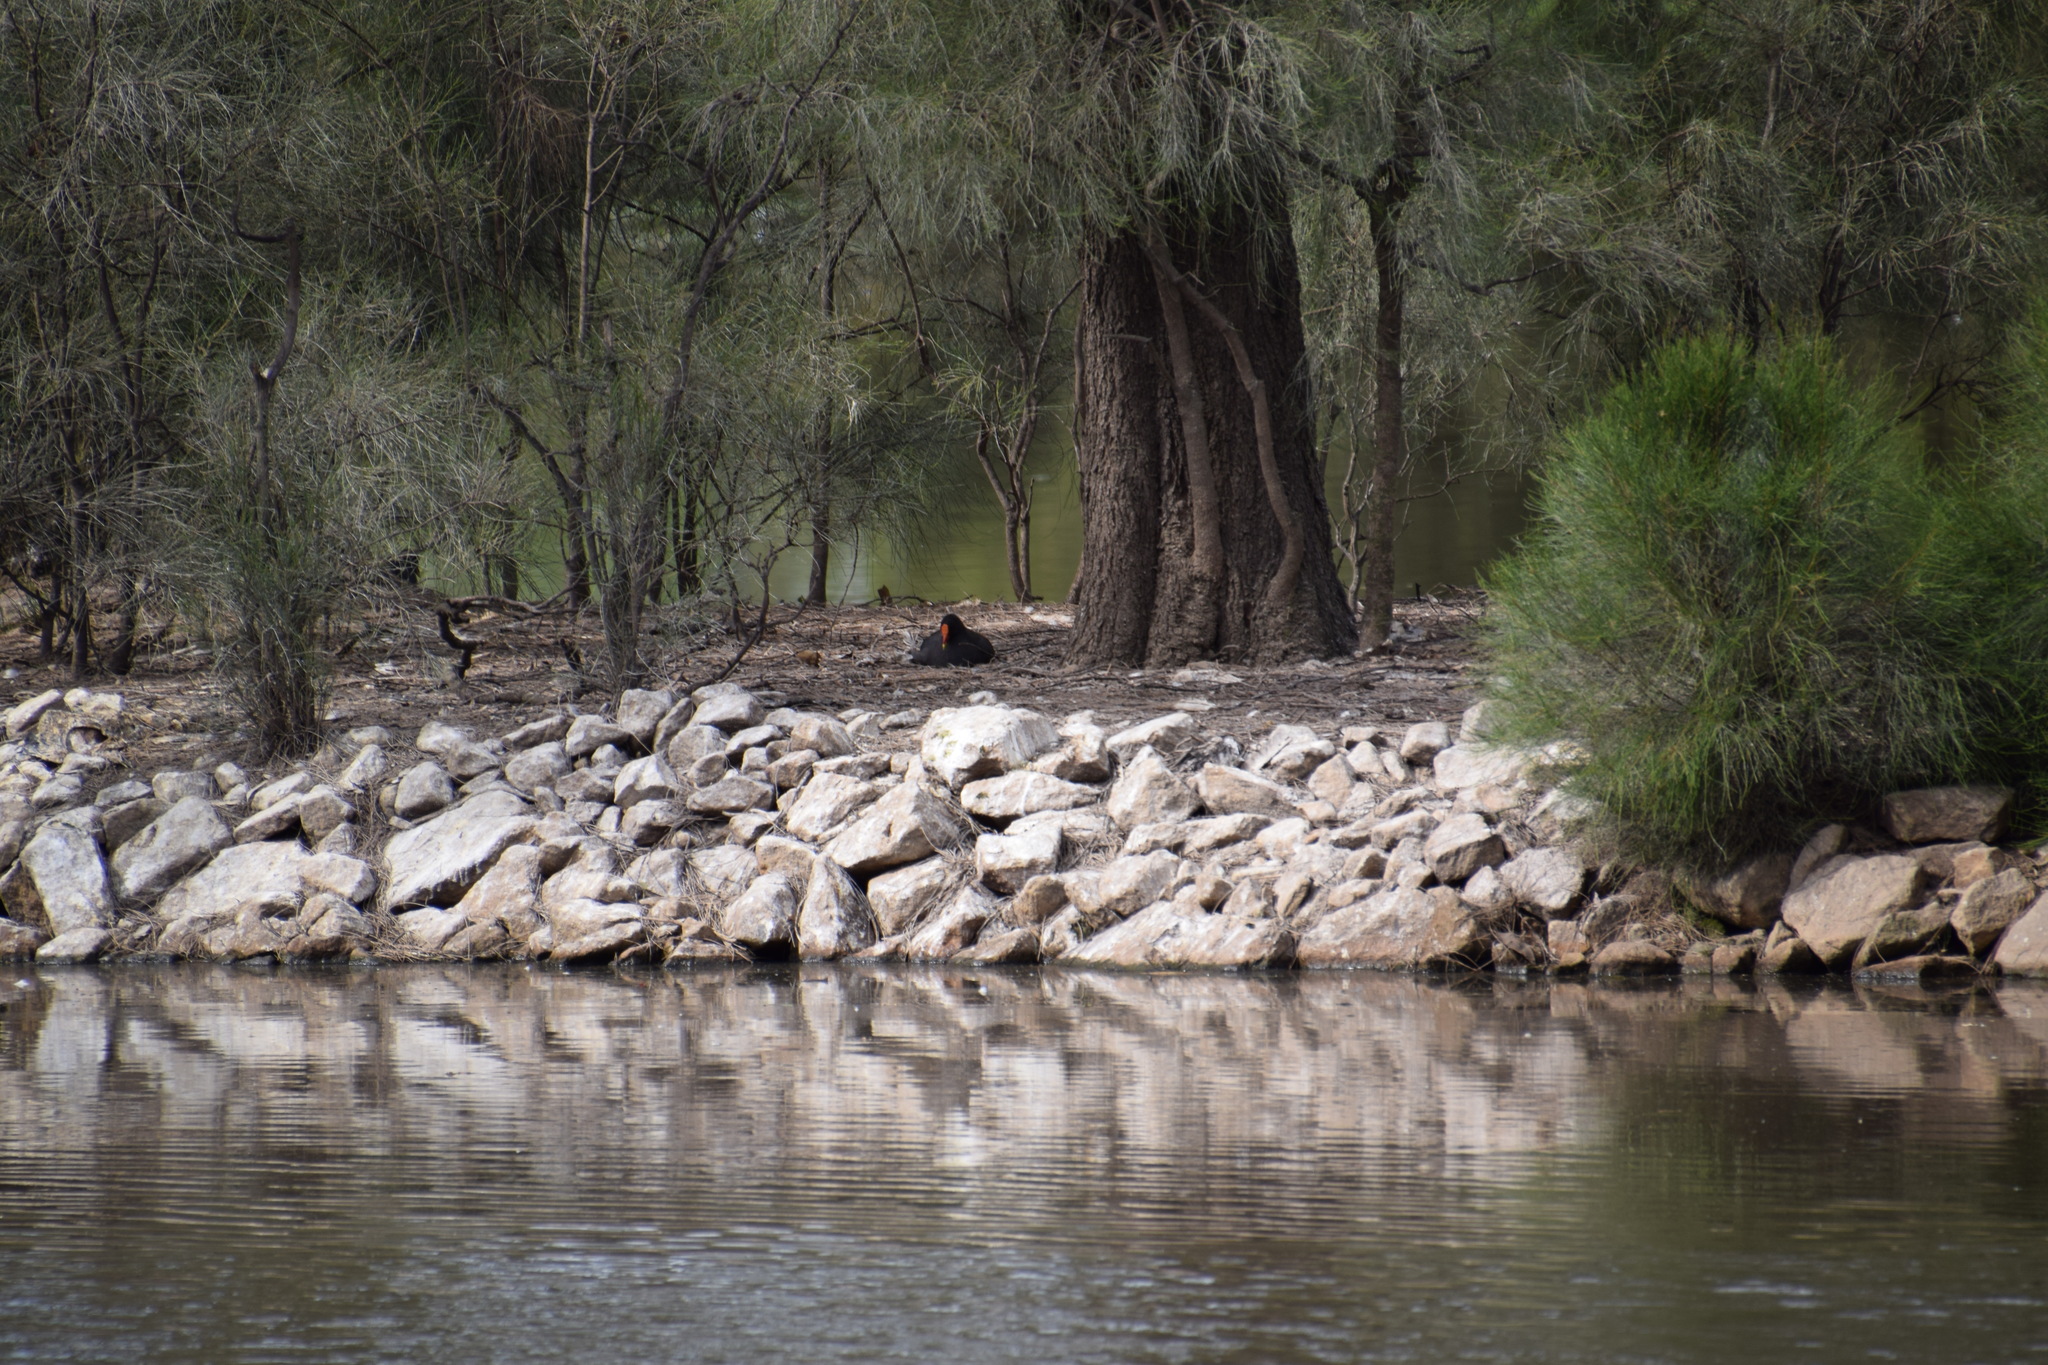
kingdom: Animalia
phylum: Chordata
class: Aves
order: Gruiformes
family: Rallidae
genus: Gallinula
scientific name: Gallinula tenebrosa
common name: Dusky moorhen
